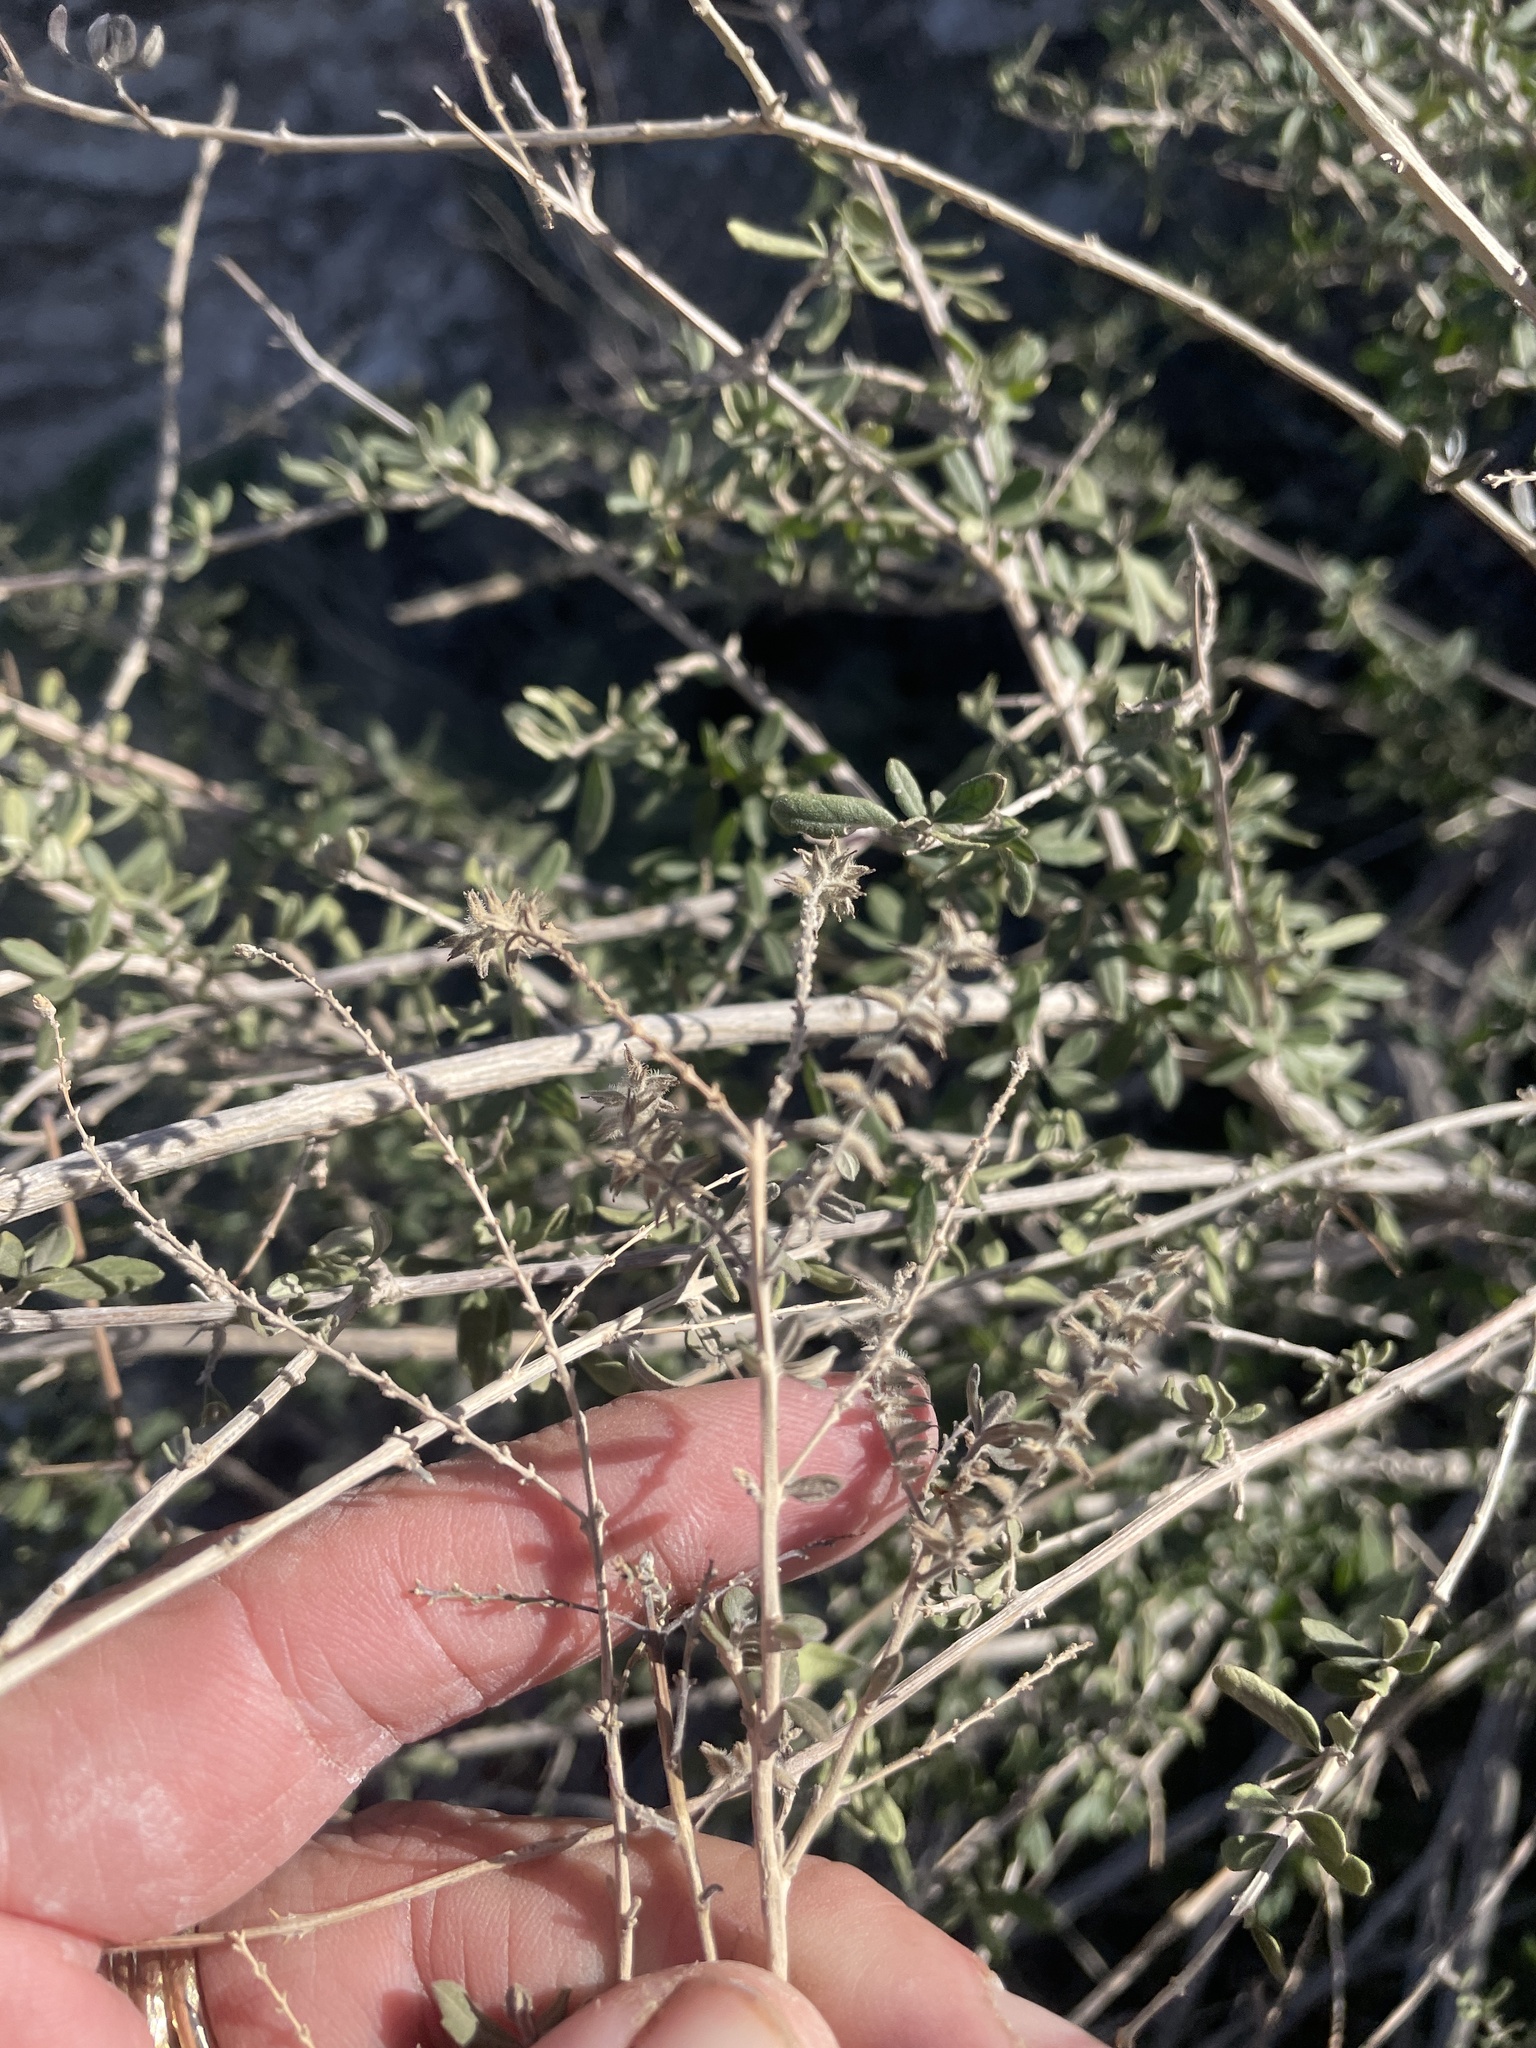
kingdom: Plantae
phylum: Tracheophyta
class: Magnoliopsida
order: Lamiales
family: Verbenaceae
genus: Aloysia
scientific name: Aloysia gratissima
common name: Common bee-brush
